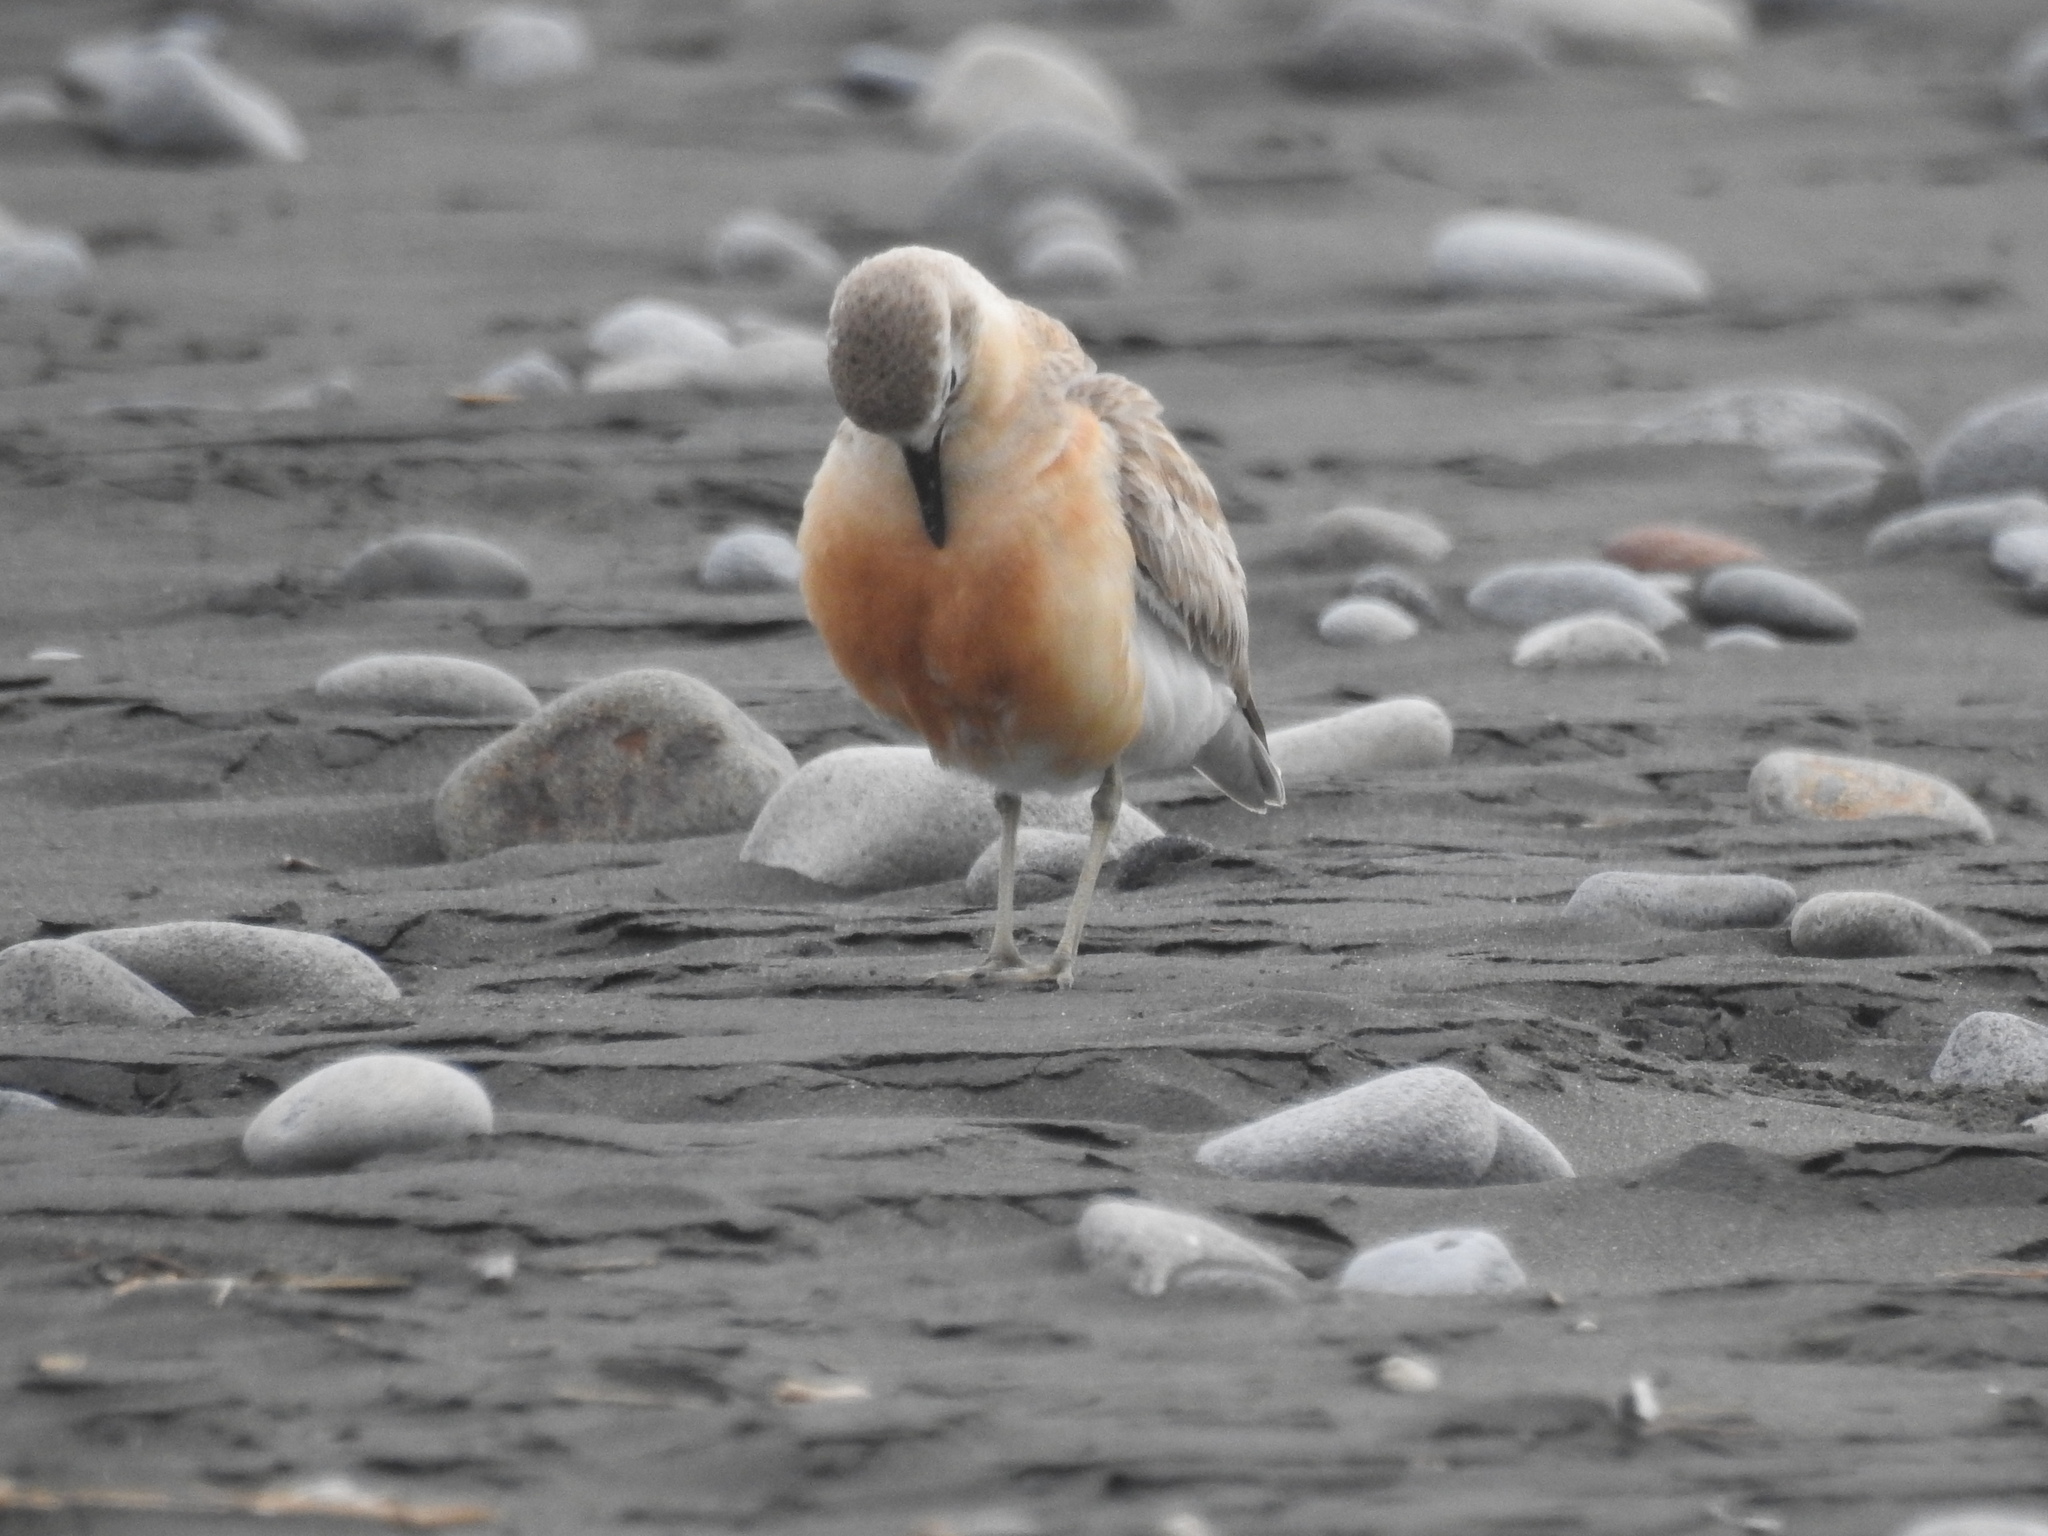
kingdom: Animalia
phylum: Chordata
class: Aves
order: Charadriiformes
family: Charadriidae
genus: Anarhynchus
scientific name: Anarhynchus
